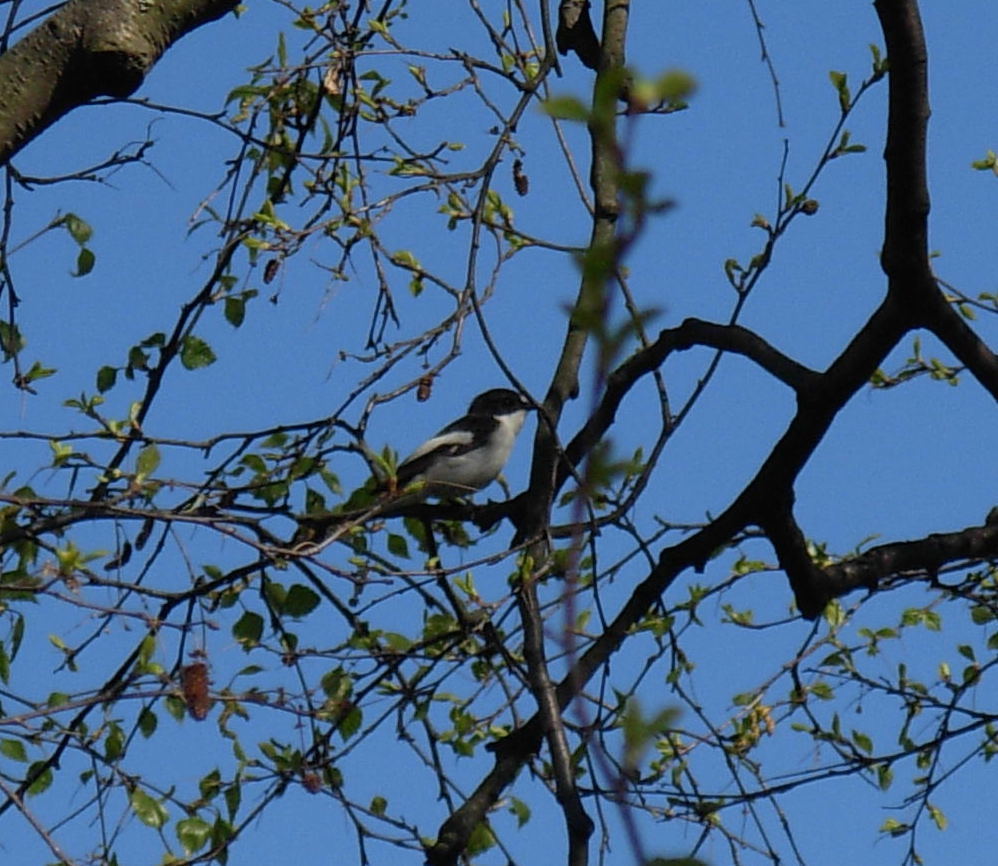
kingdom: Animalia
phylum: Chordata
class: Aves
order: Passeriformes
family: Muscicapidae
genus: Ficedula
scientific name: Ficedula hypoleuca
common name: European pied flycatcher
